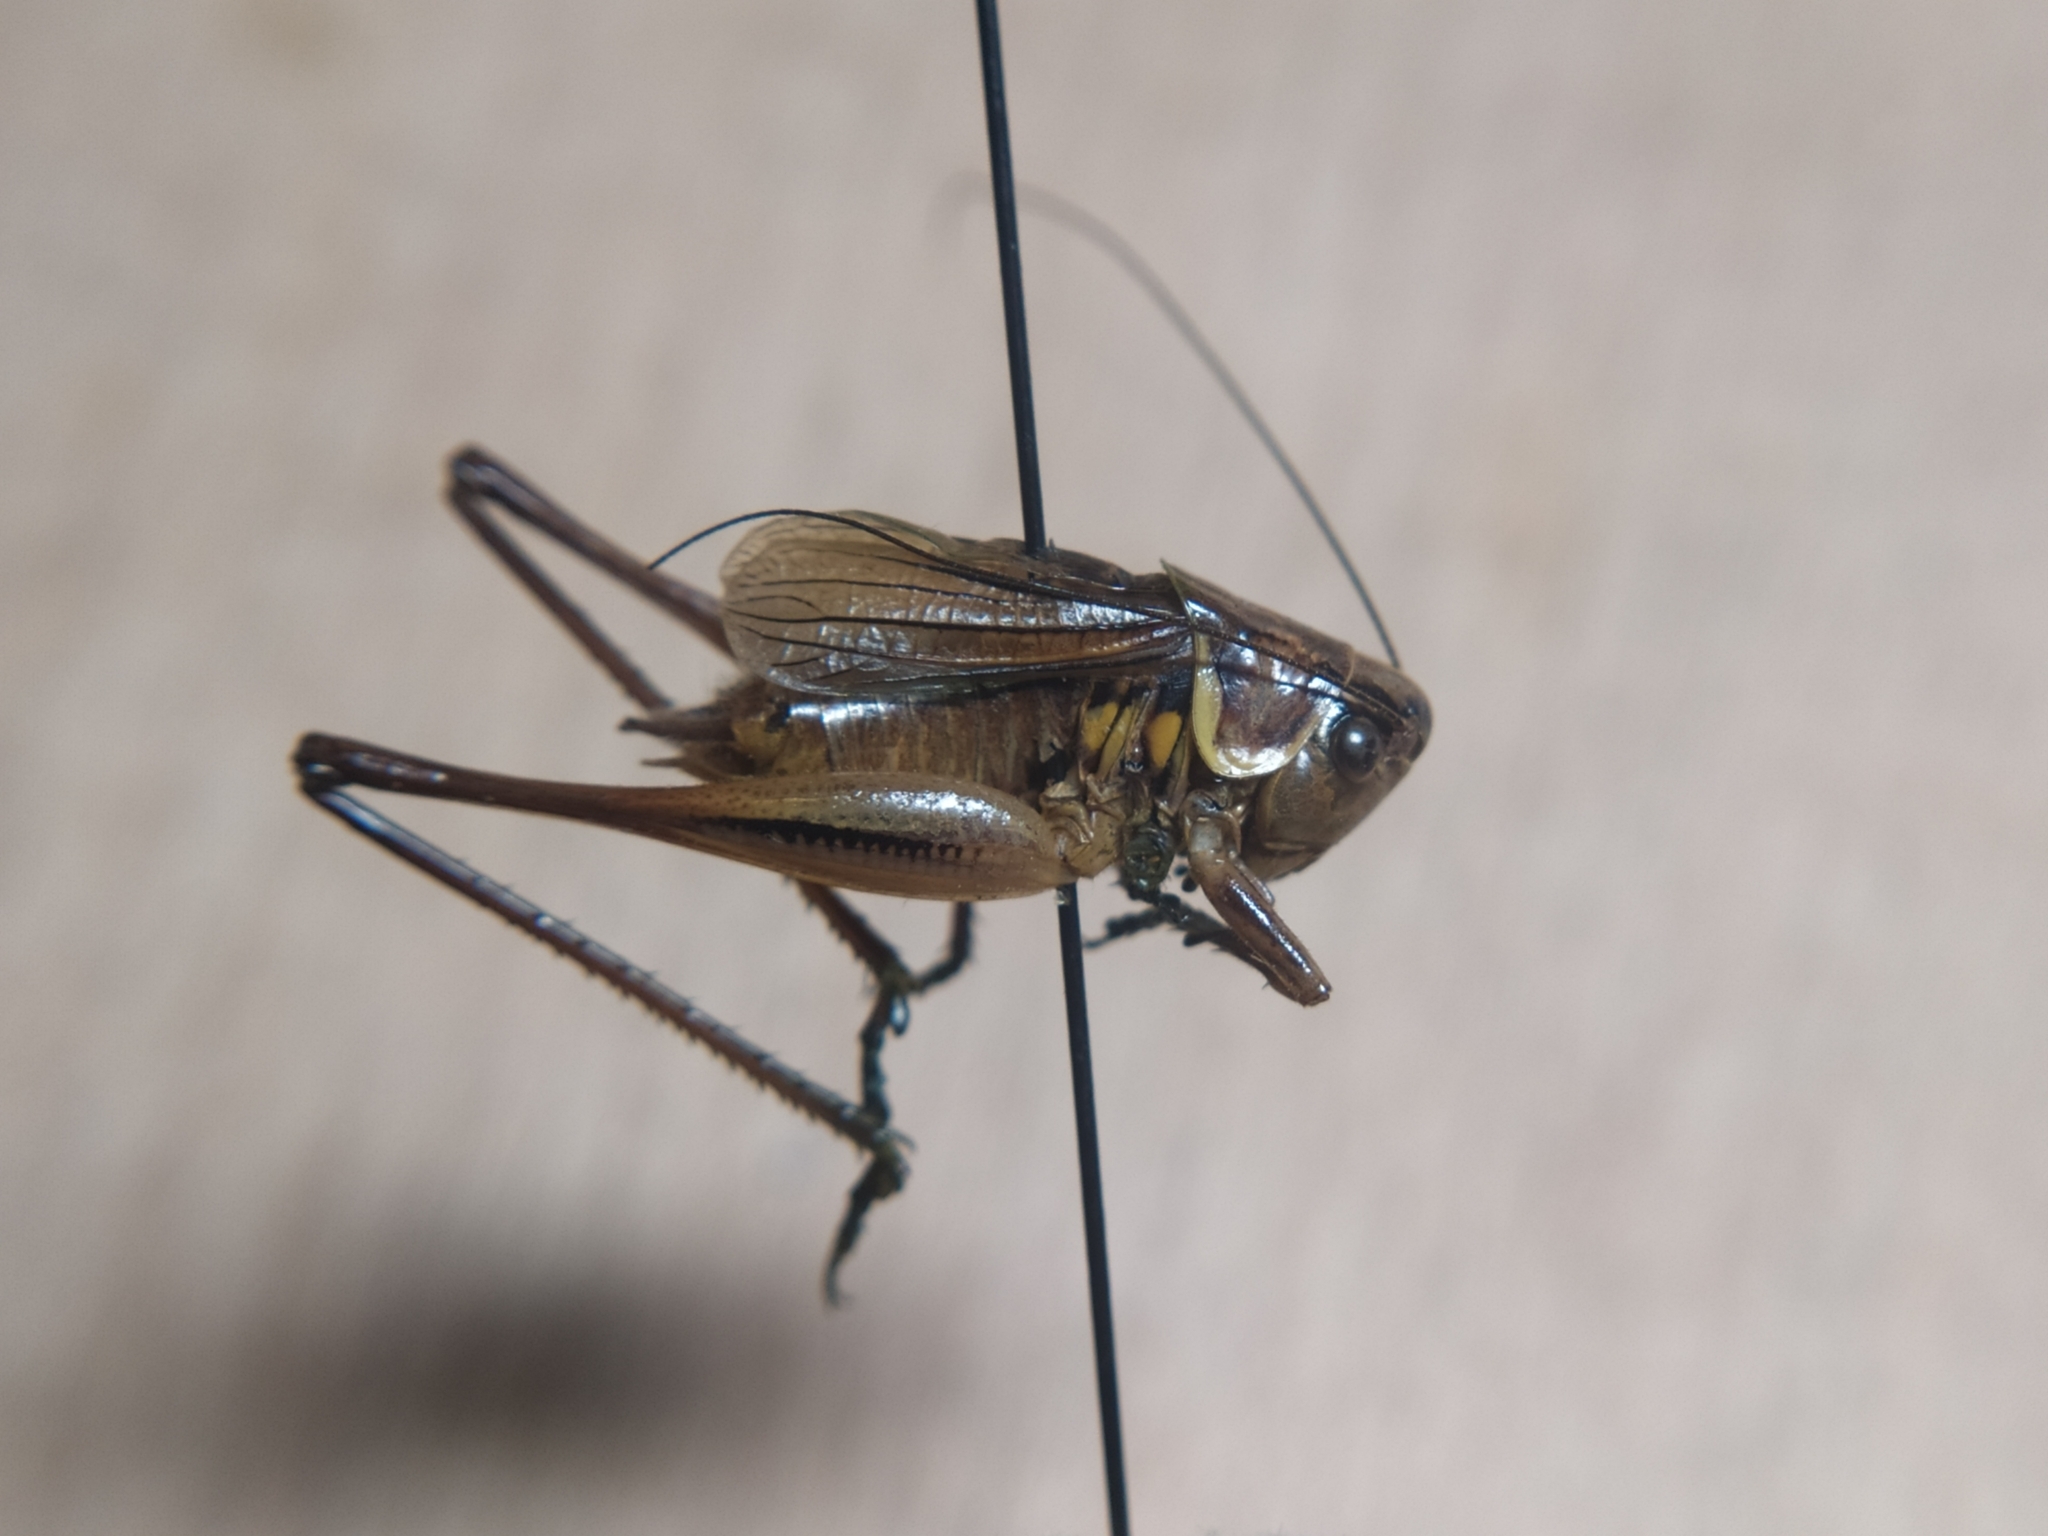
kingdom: Animalia
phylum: Arthropoda
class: Insecta
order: Orthoptera
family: Tettigoniidae
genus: Roeseliana
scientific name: Roeseliana roeselii
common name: Roesel's bush cricket
